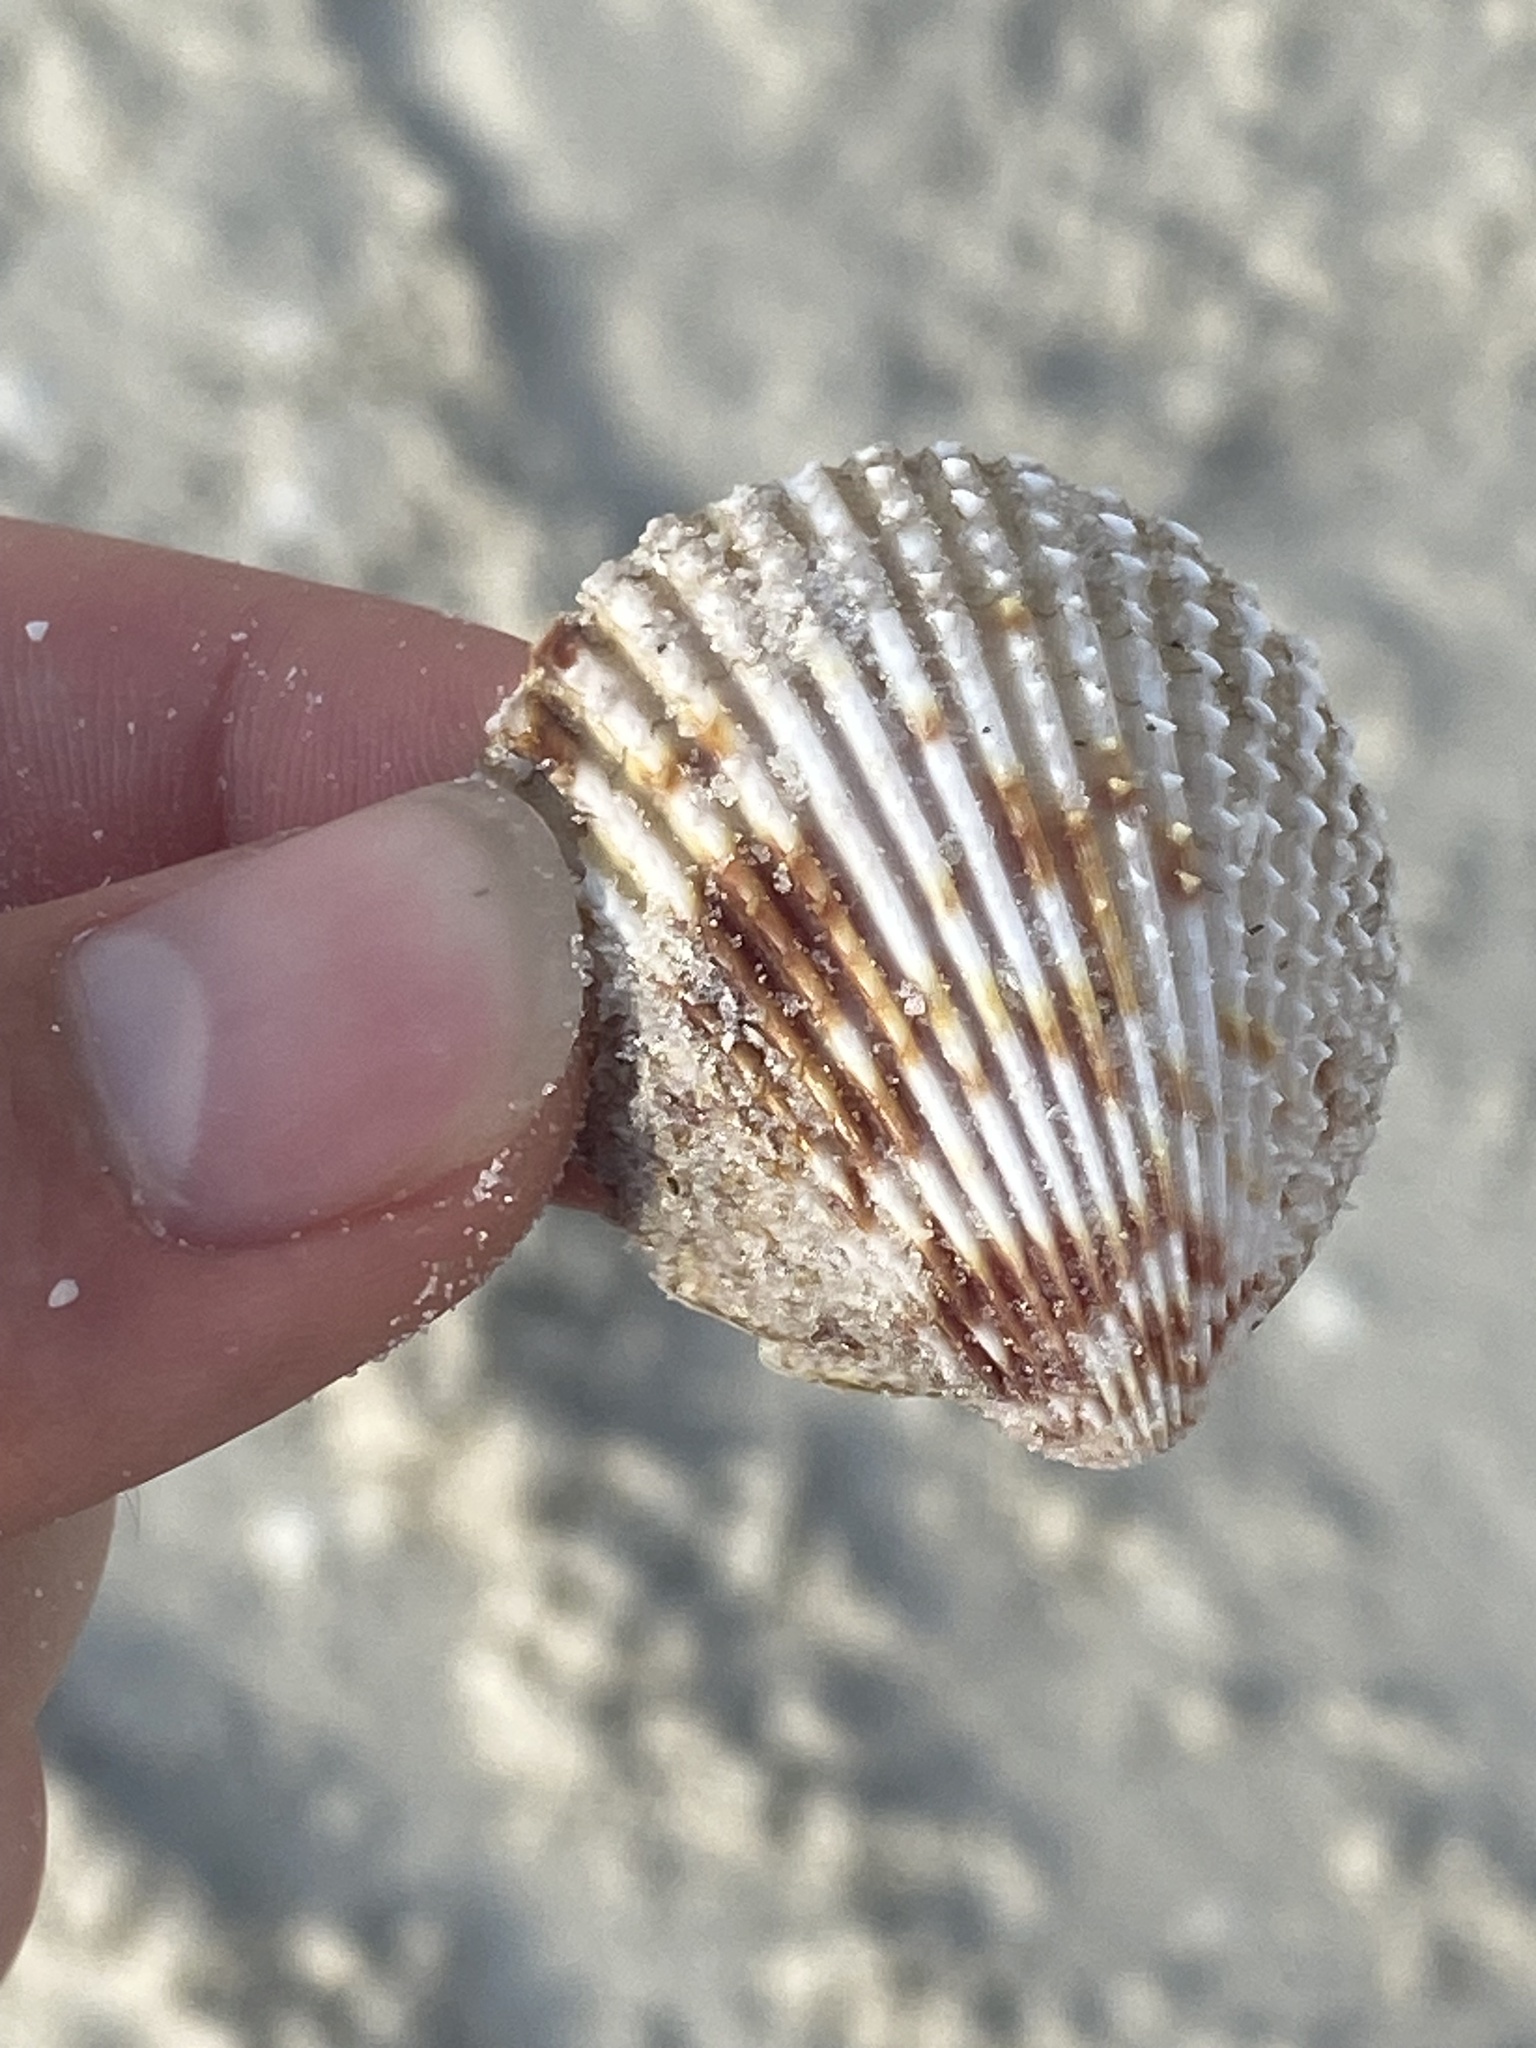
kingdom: Animalia
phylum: Mollusca
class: Bivalvia
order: Cardiida
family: Cardiidae
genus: Trachycardium
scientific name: Trachycardium egmontianum
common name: Florida pricklycockle
